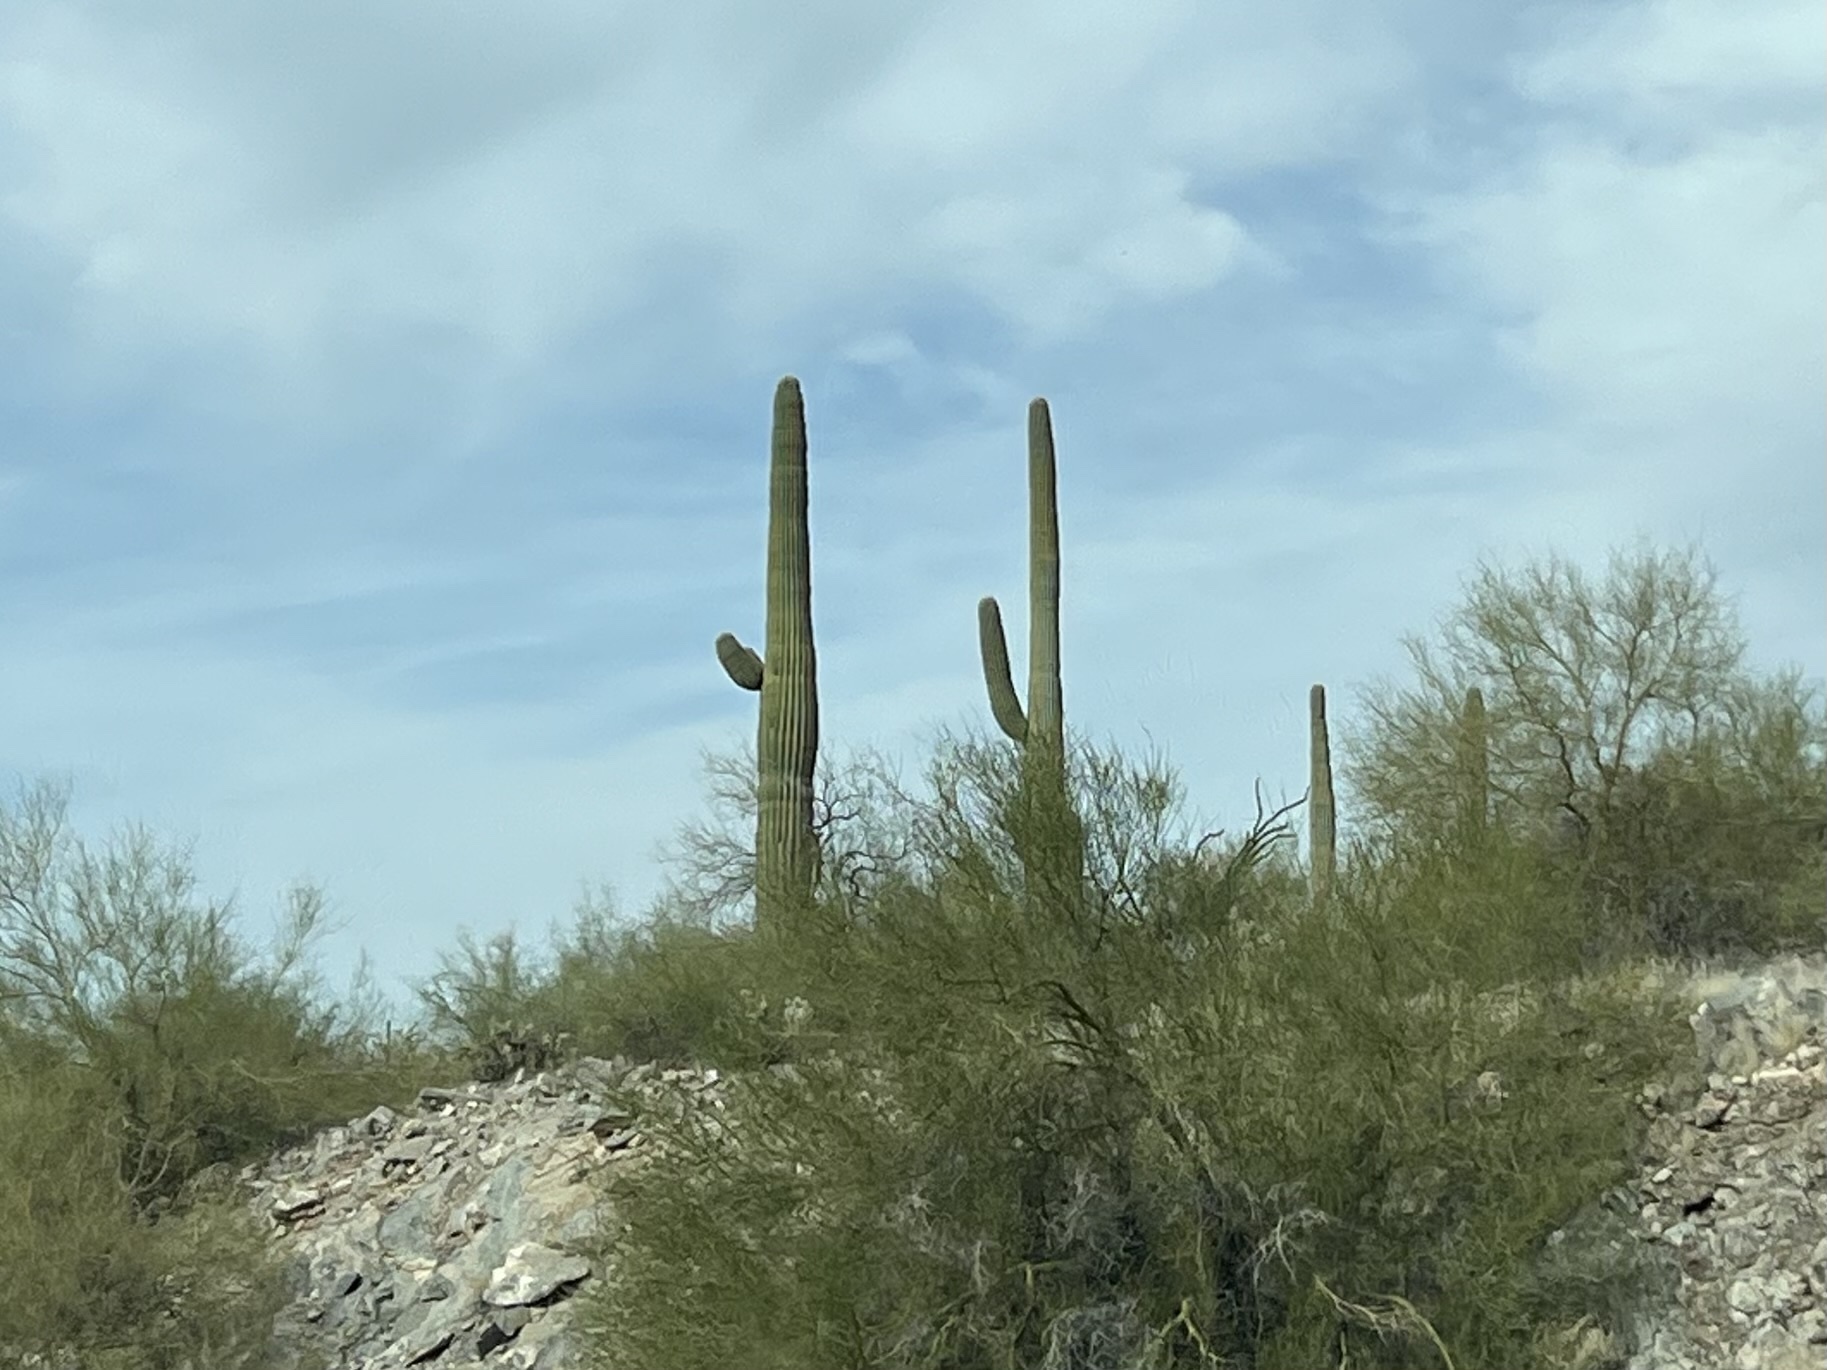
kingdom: Plantae
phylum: Tracheophyta
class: Magnoliopsida
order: Caryophyllales
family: Cactaceae
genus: Carnegiea
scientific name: Carnegiea gigantea
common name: Saguaro
